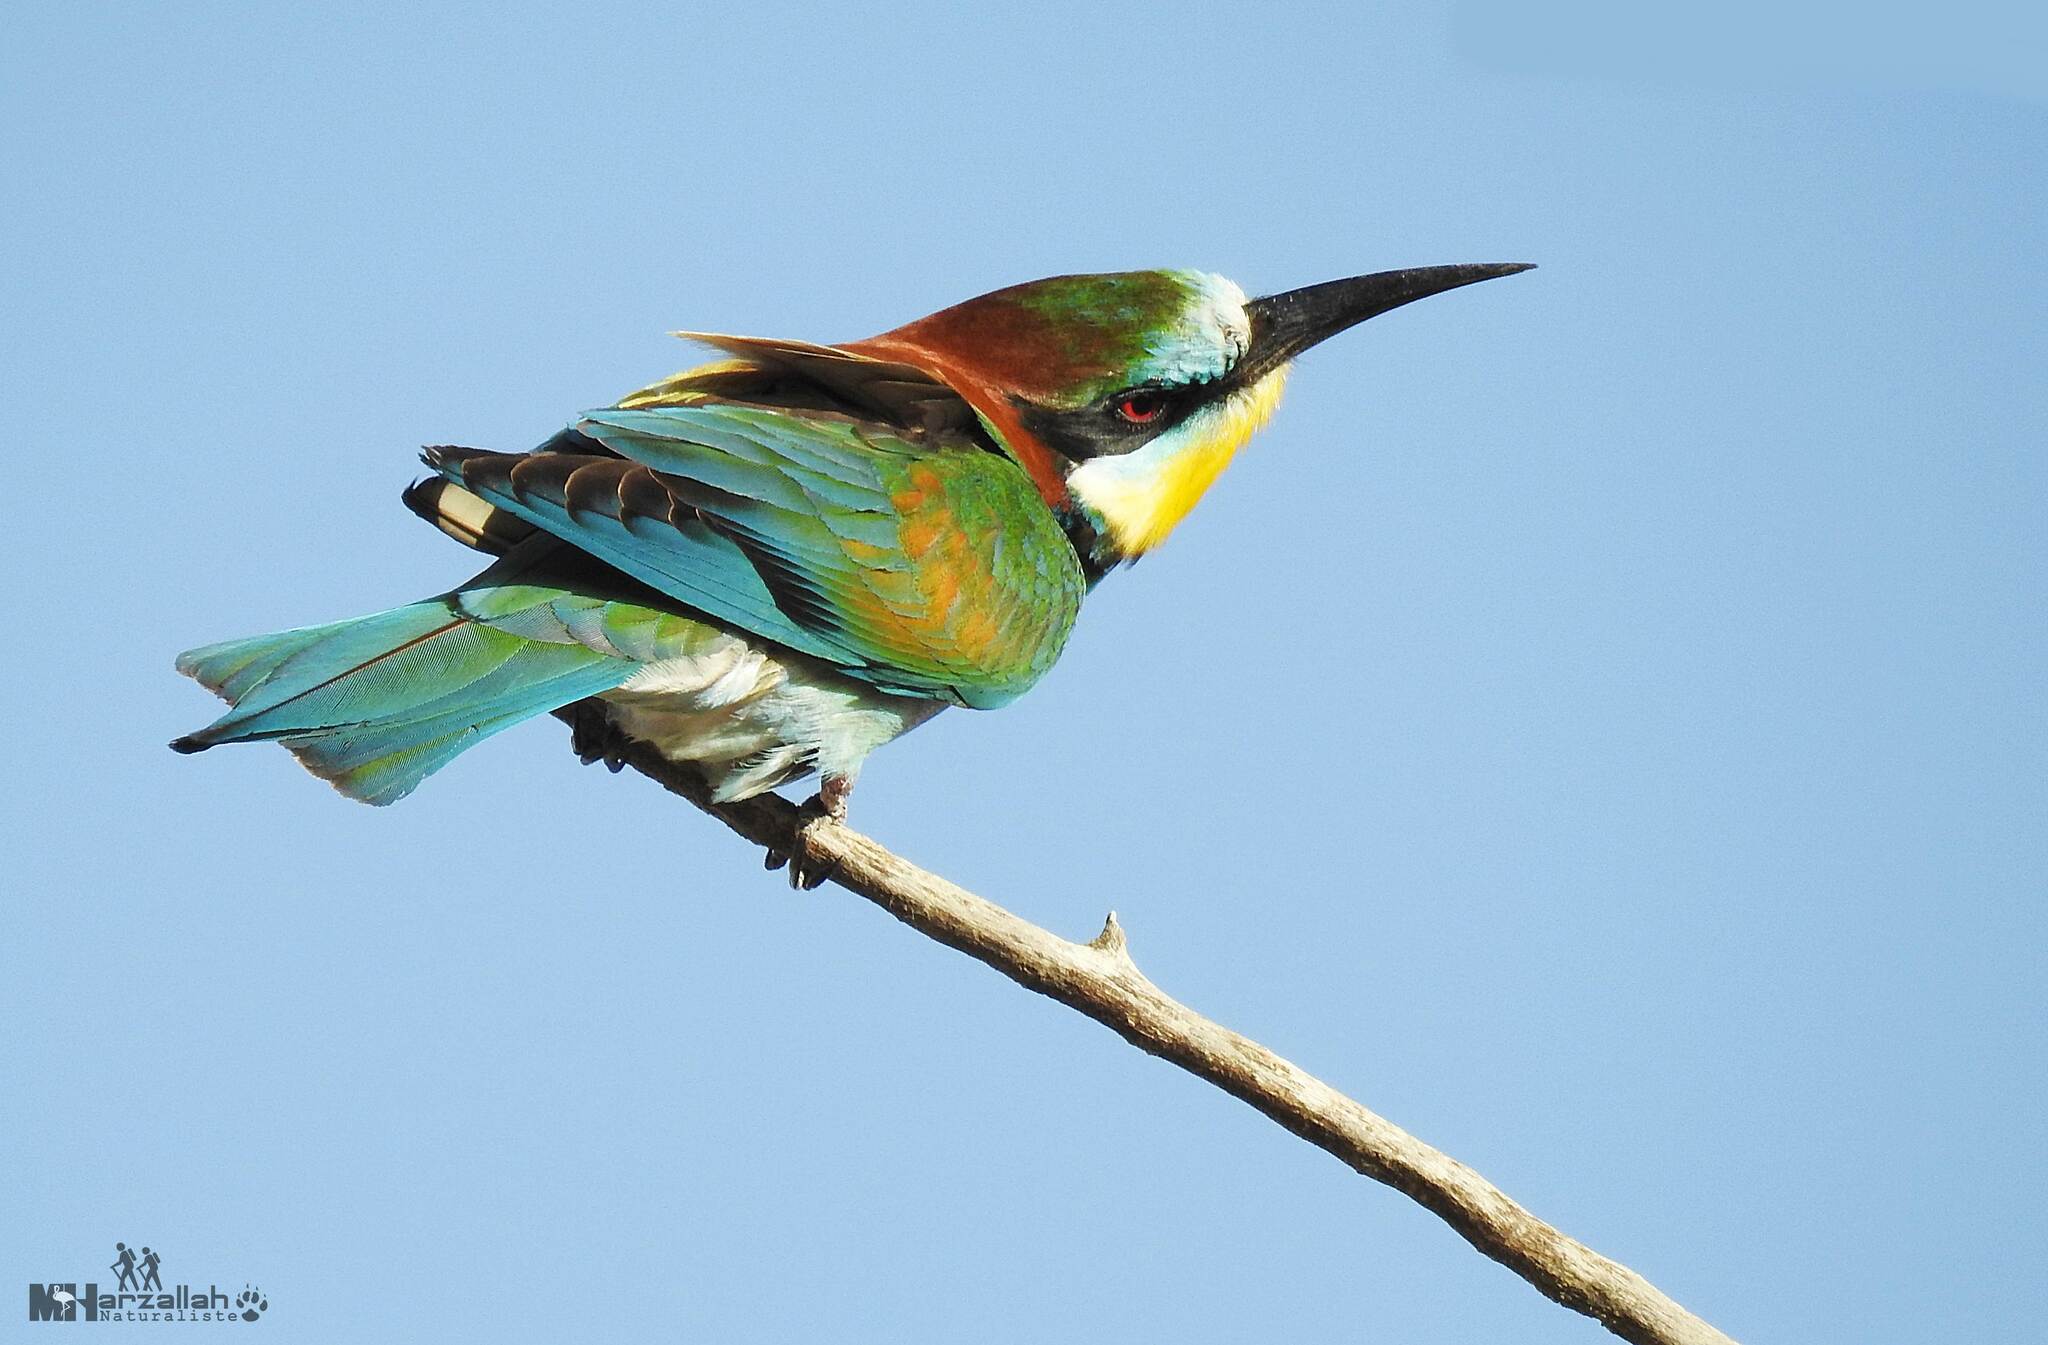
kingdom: Animalia
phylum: Chordata
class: Aves
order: Coraciiformes
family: Meropidae
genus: Merops
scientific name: Merops apiaster
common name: European bee-eater
